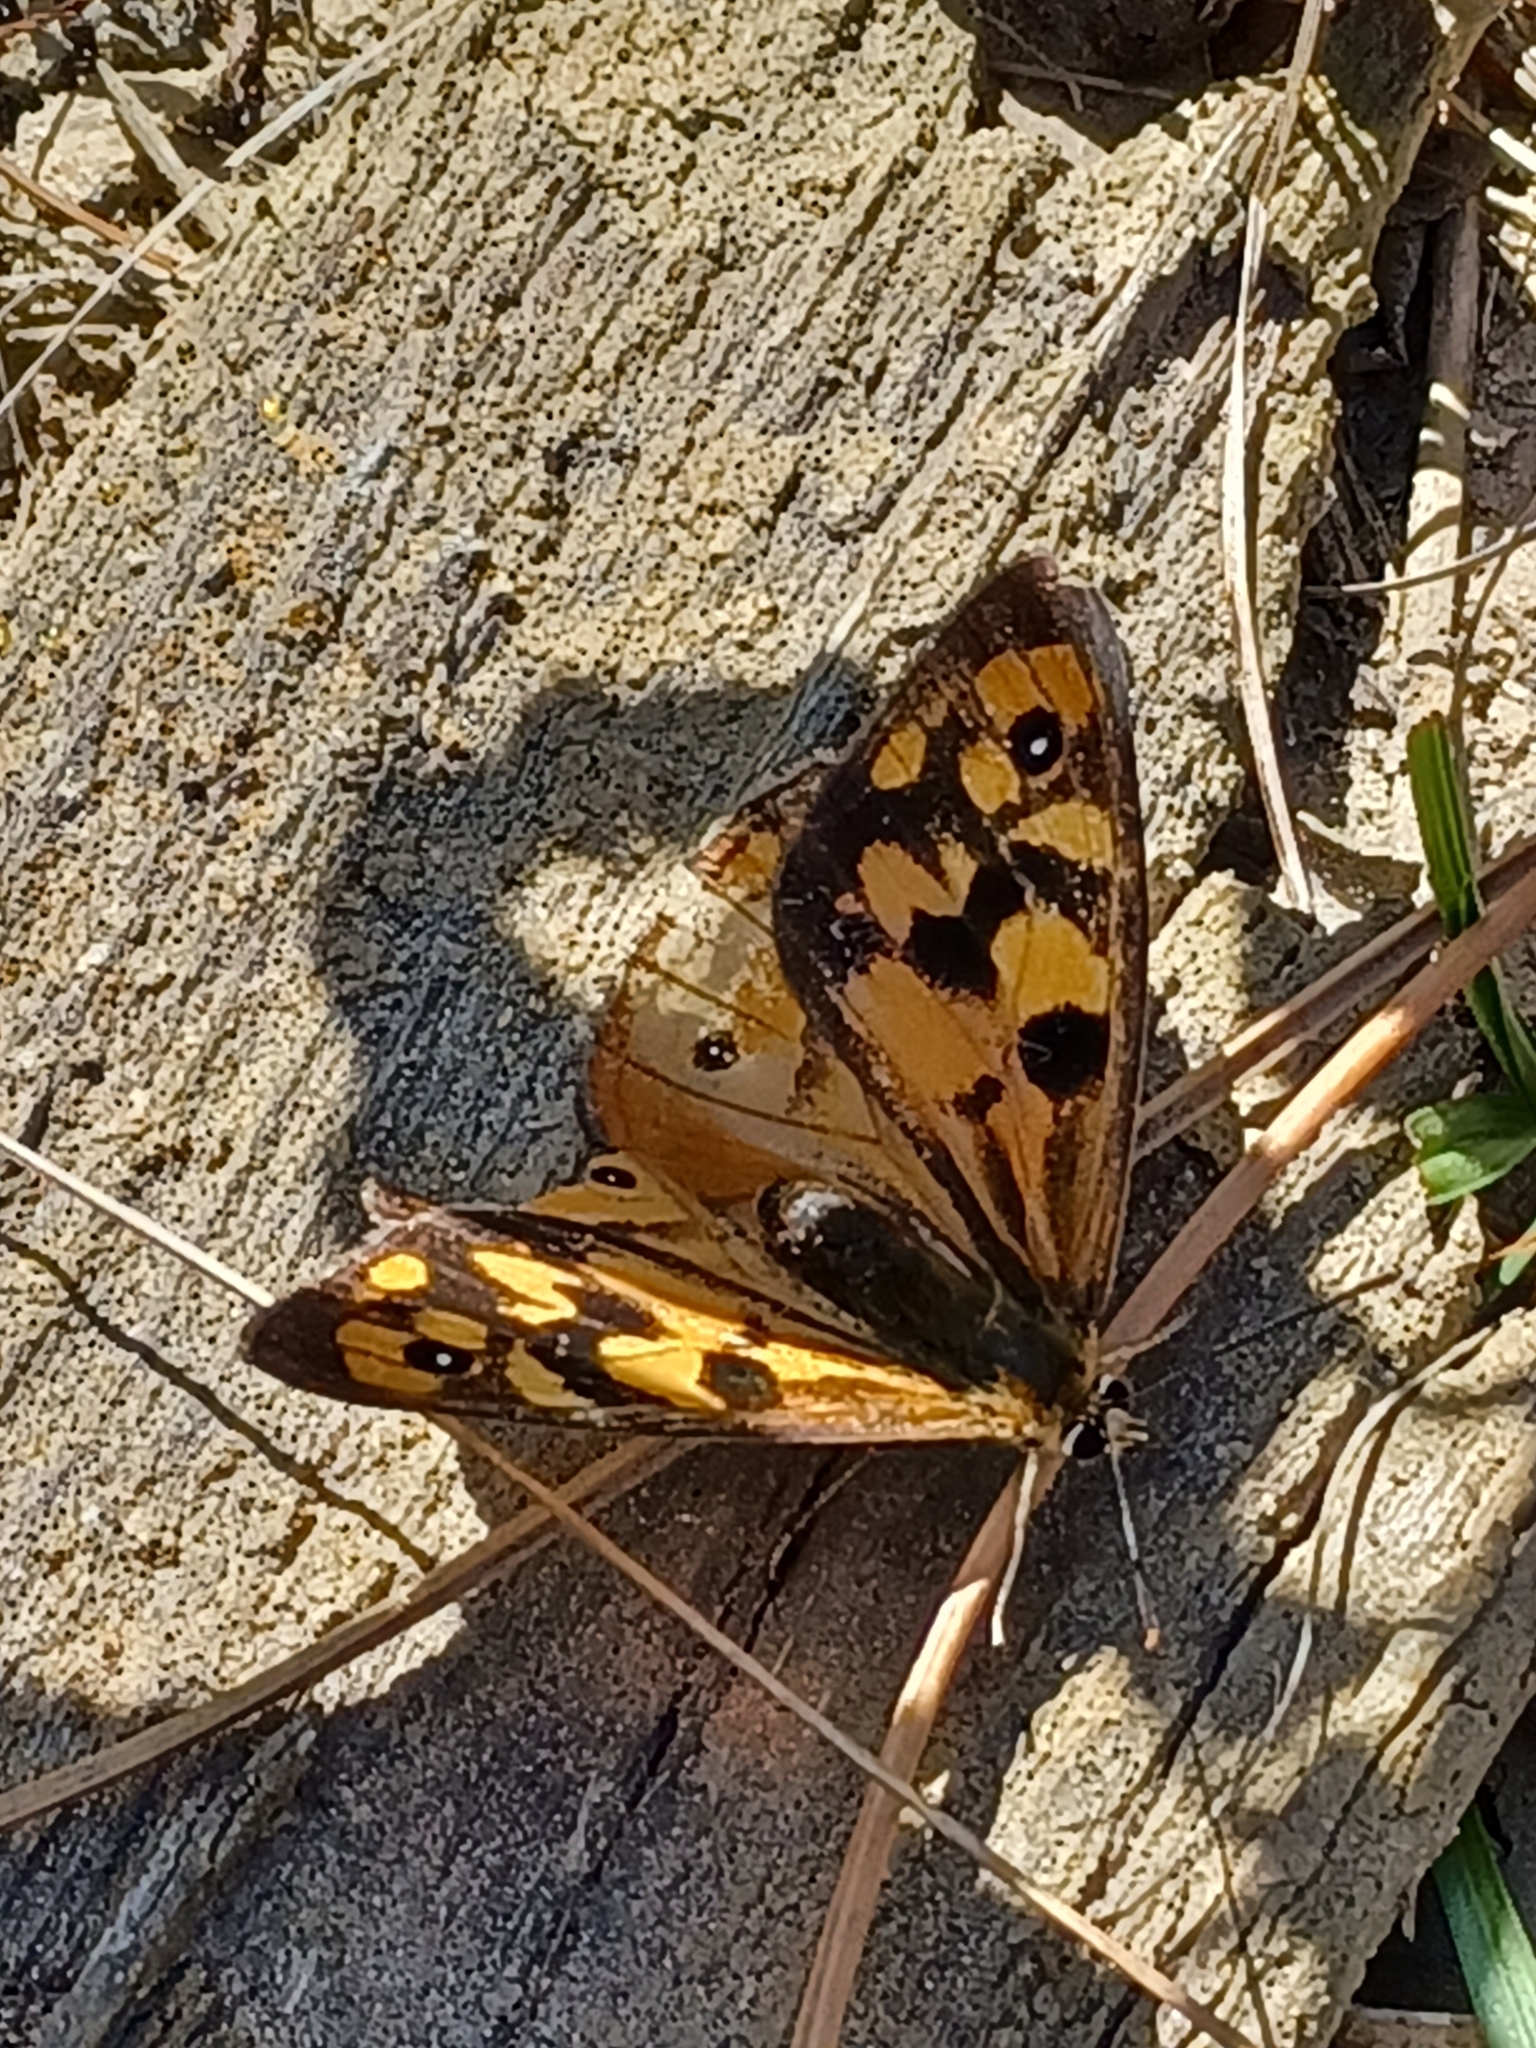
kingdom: Animalia
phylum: Arthropoda
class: Insecta
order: Lepidoptera
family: Nymphalidae
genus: Heteronympha
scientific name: Heteronympha penelope
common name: Shouldered brown
